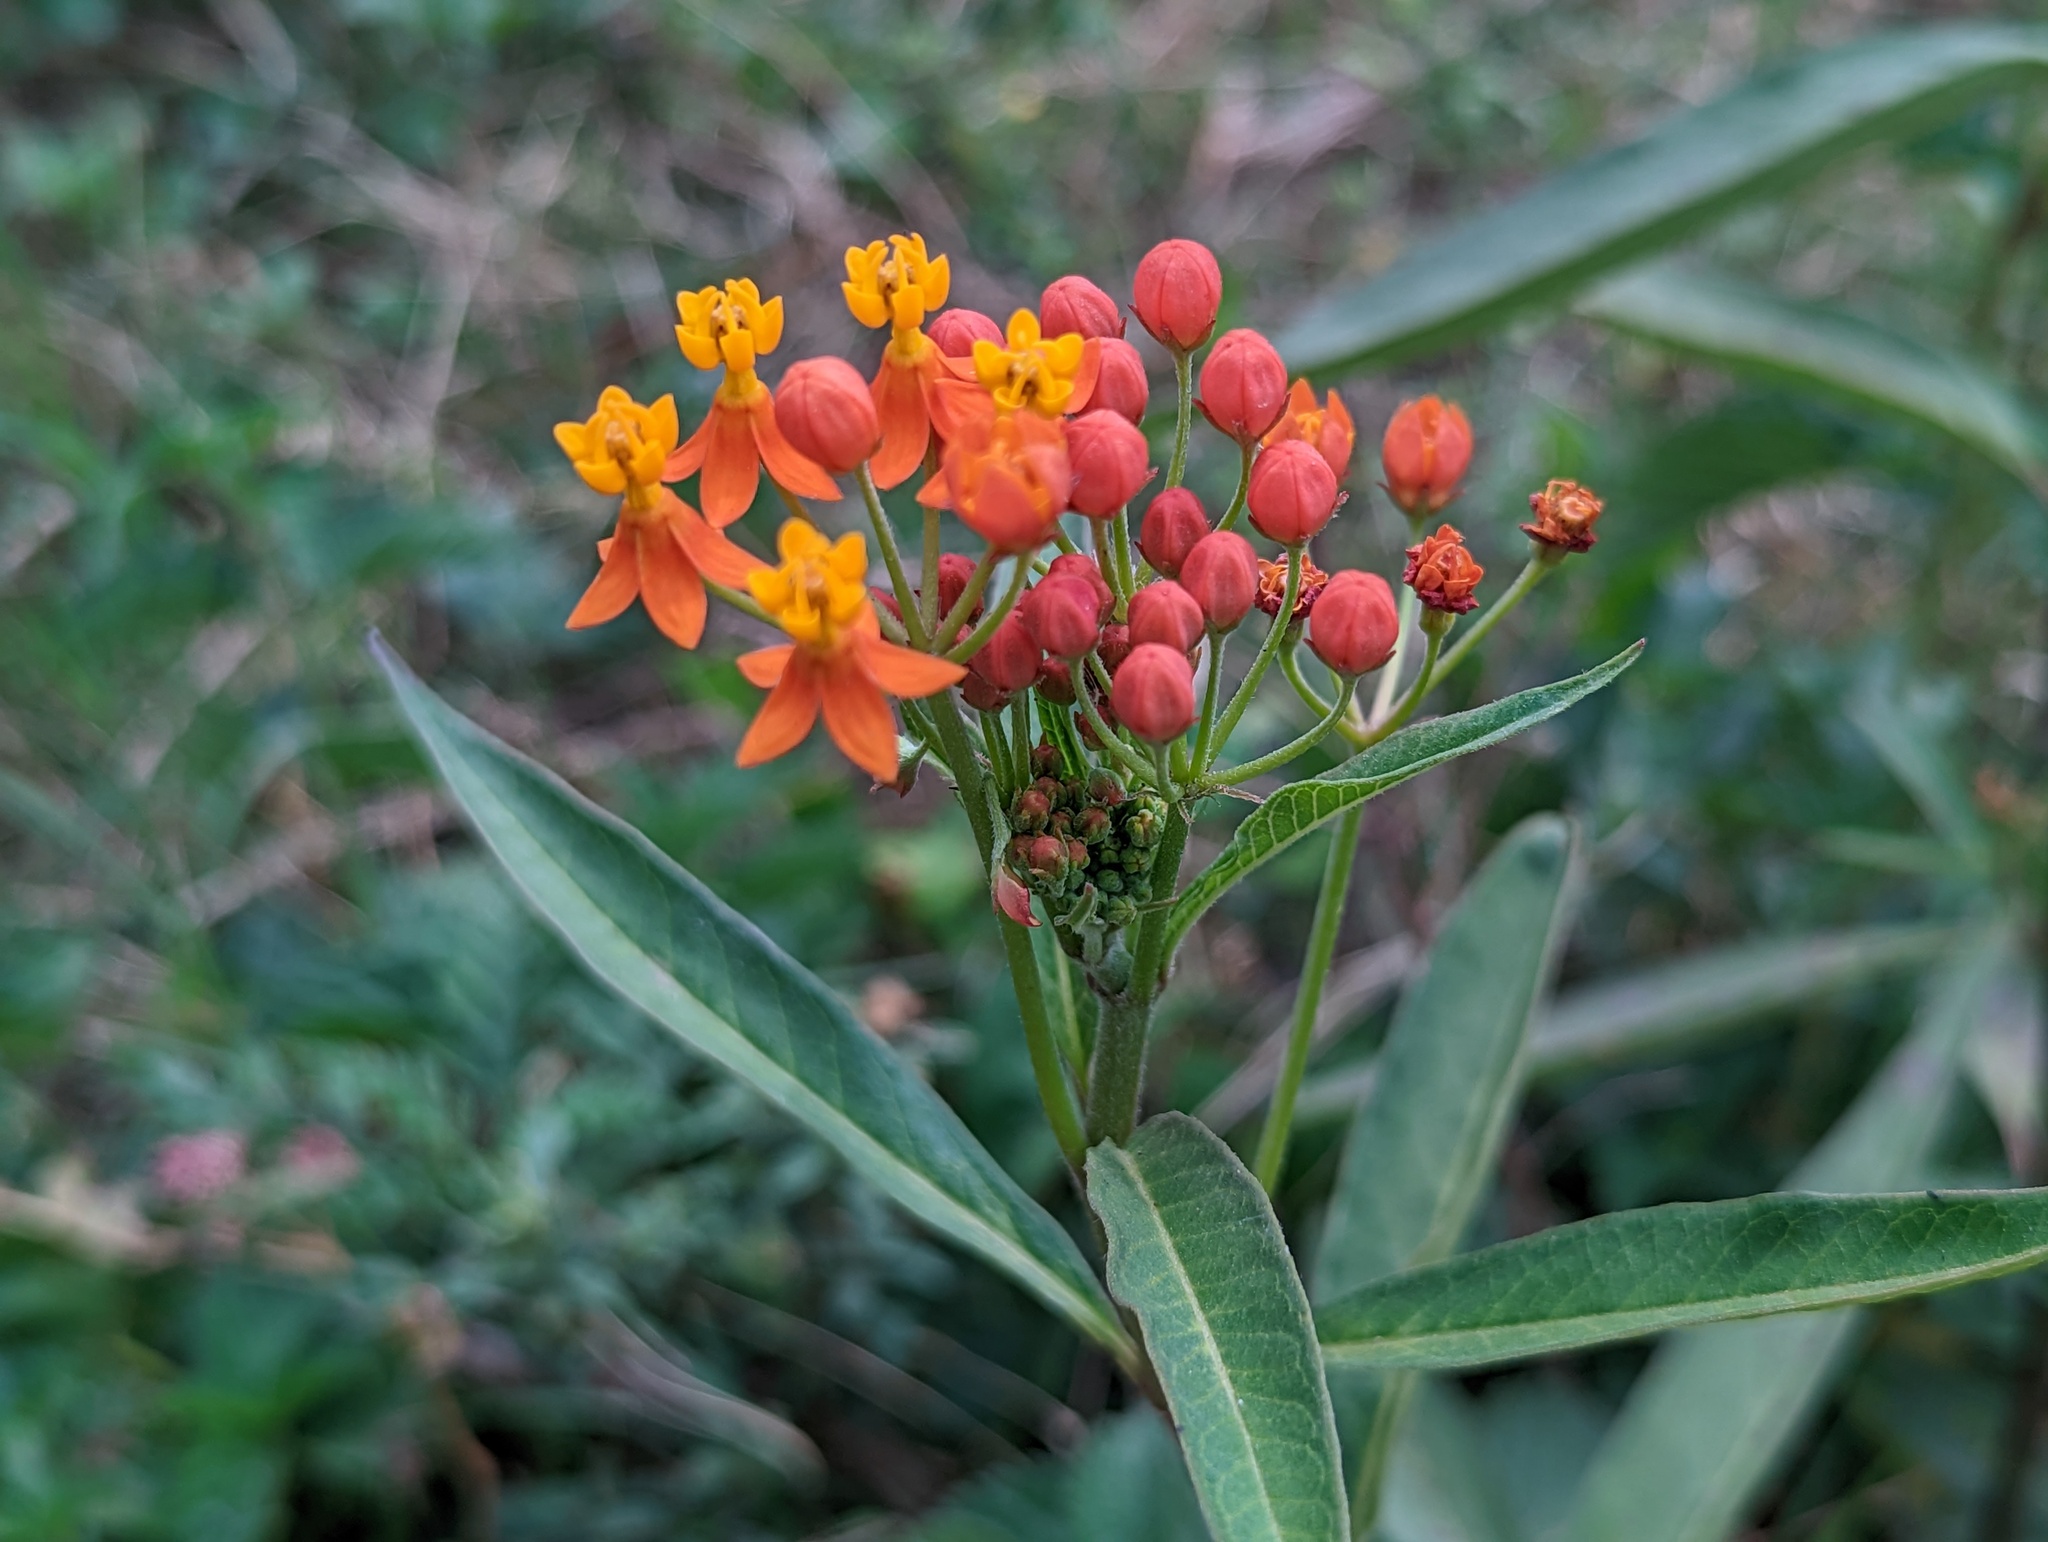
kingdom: Plantae
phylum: Tracheophyta
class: Magnoliopsida
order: Gentianales
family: Apocynaceae
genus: Asclepias
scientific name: Asclepias curassavica
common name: Bloodflower
